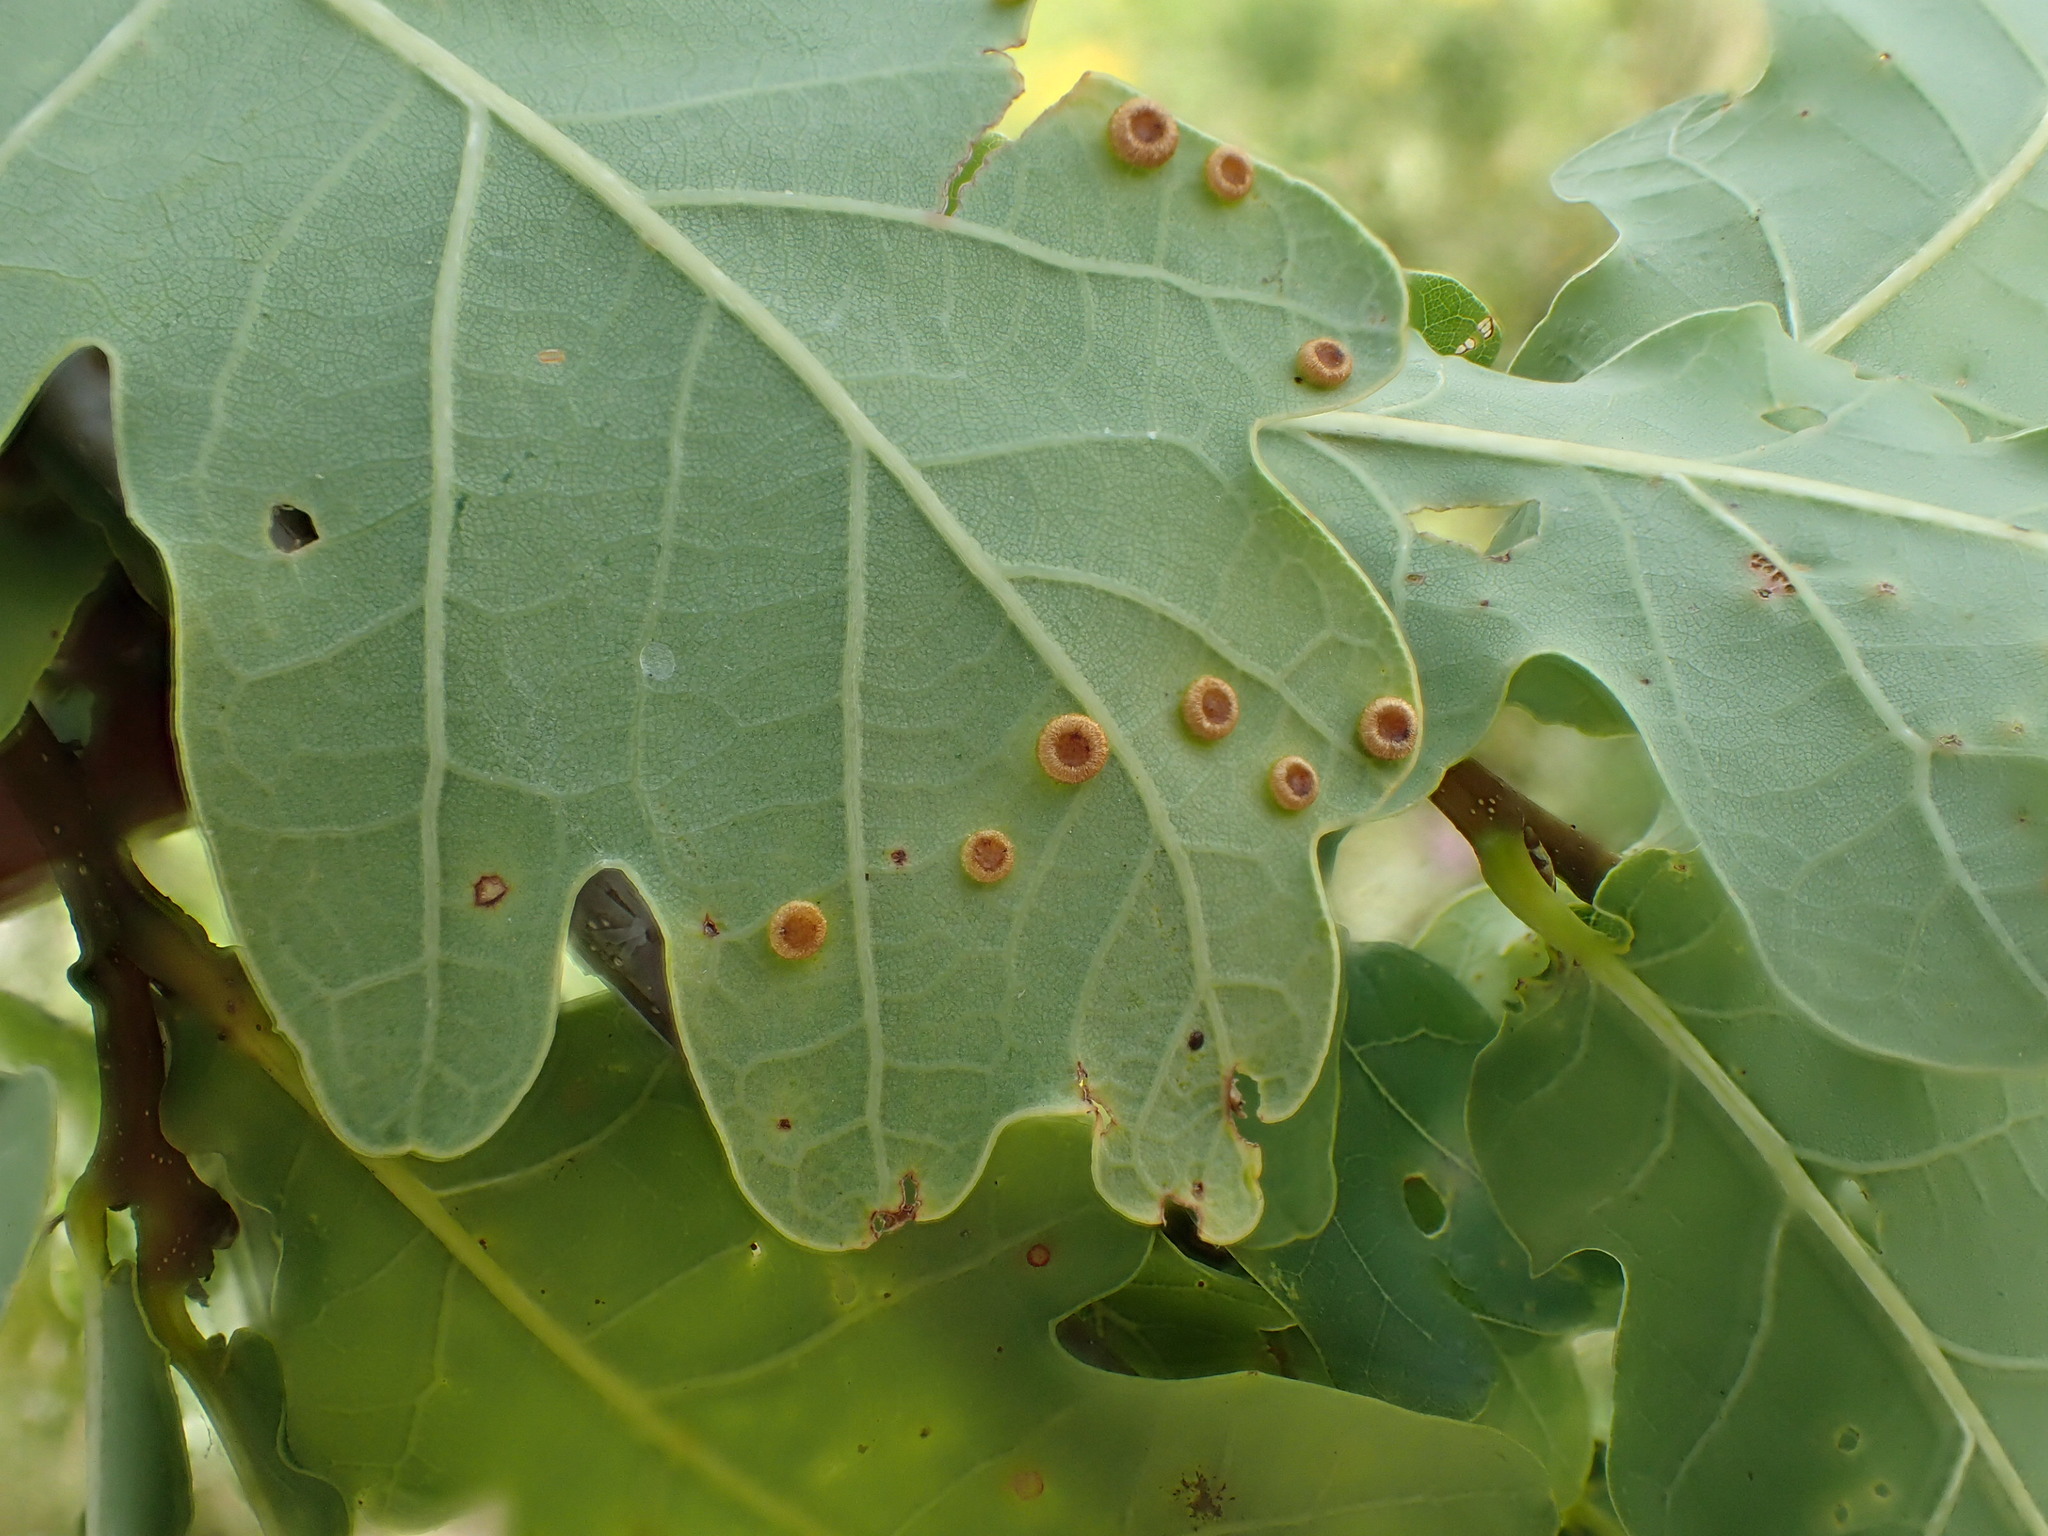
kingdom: Animalia
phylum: Arthropoda
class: Insecta
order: Hymenoptera
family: Cynipidae
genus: Neuroterus
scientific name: Neuroterus numismalis
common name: Silk-button spangle gall
